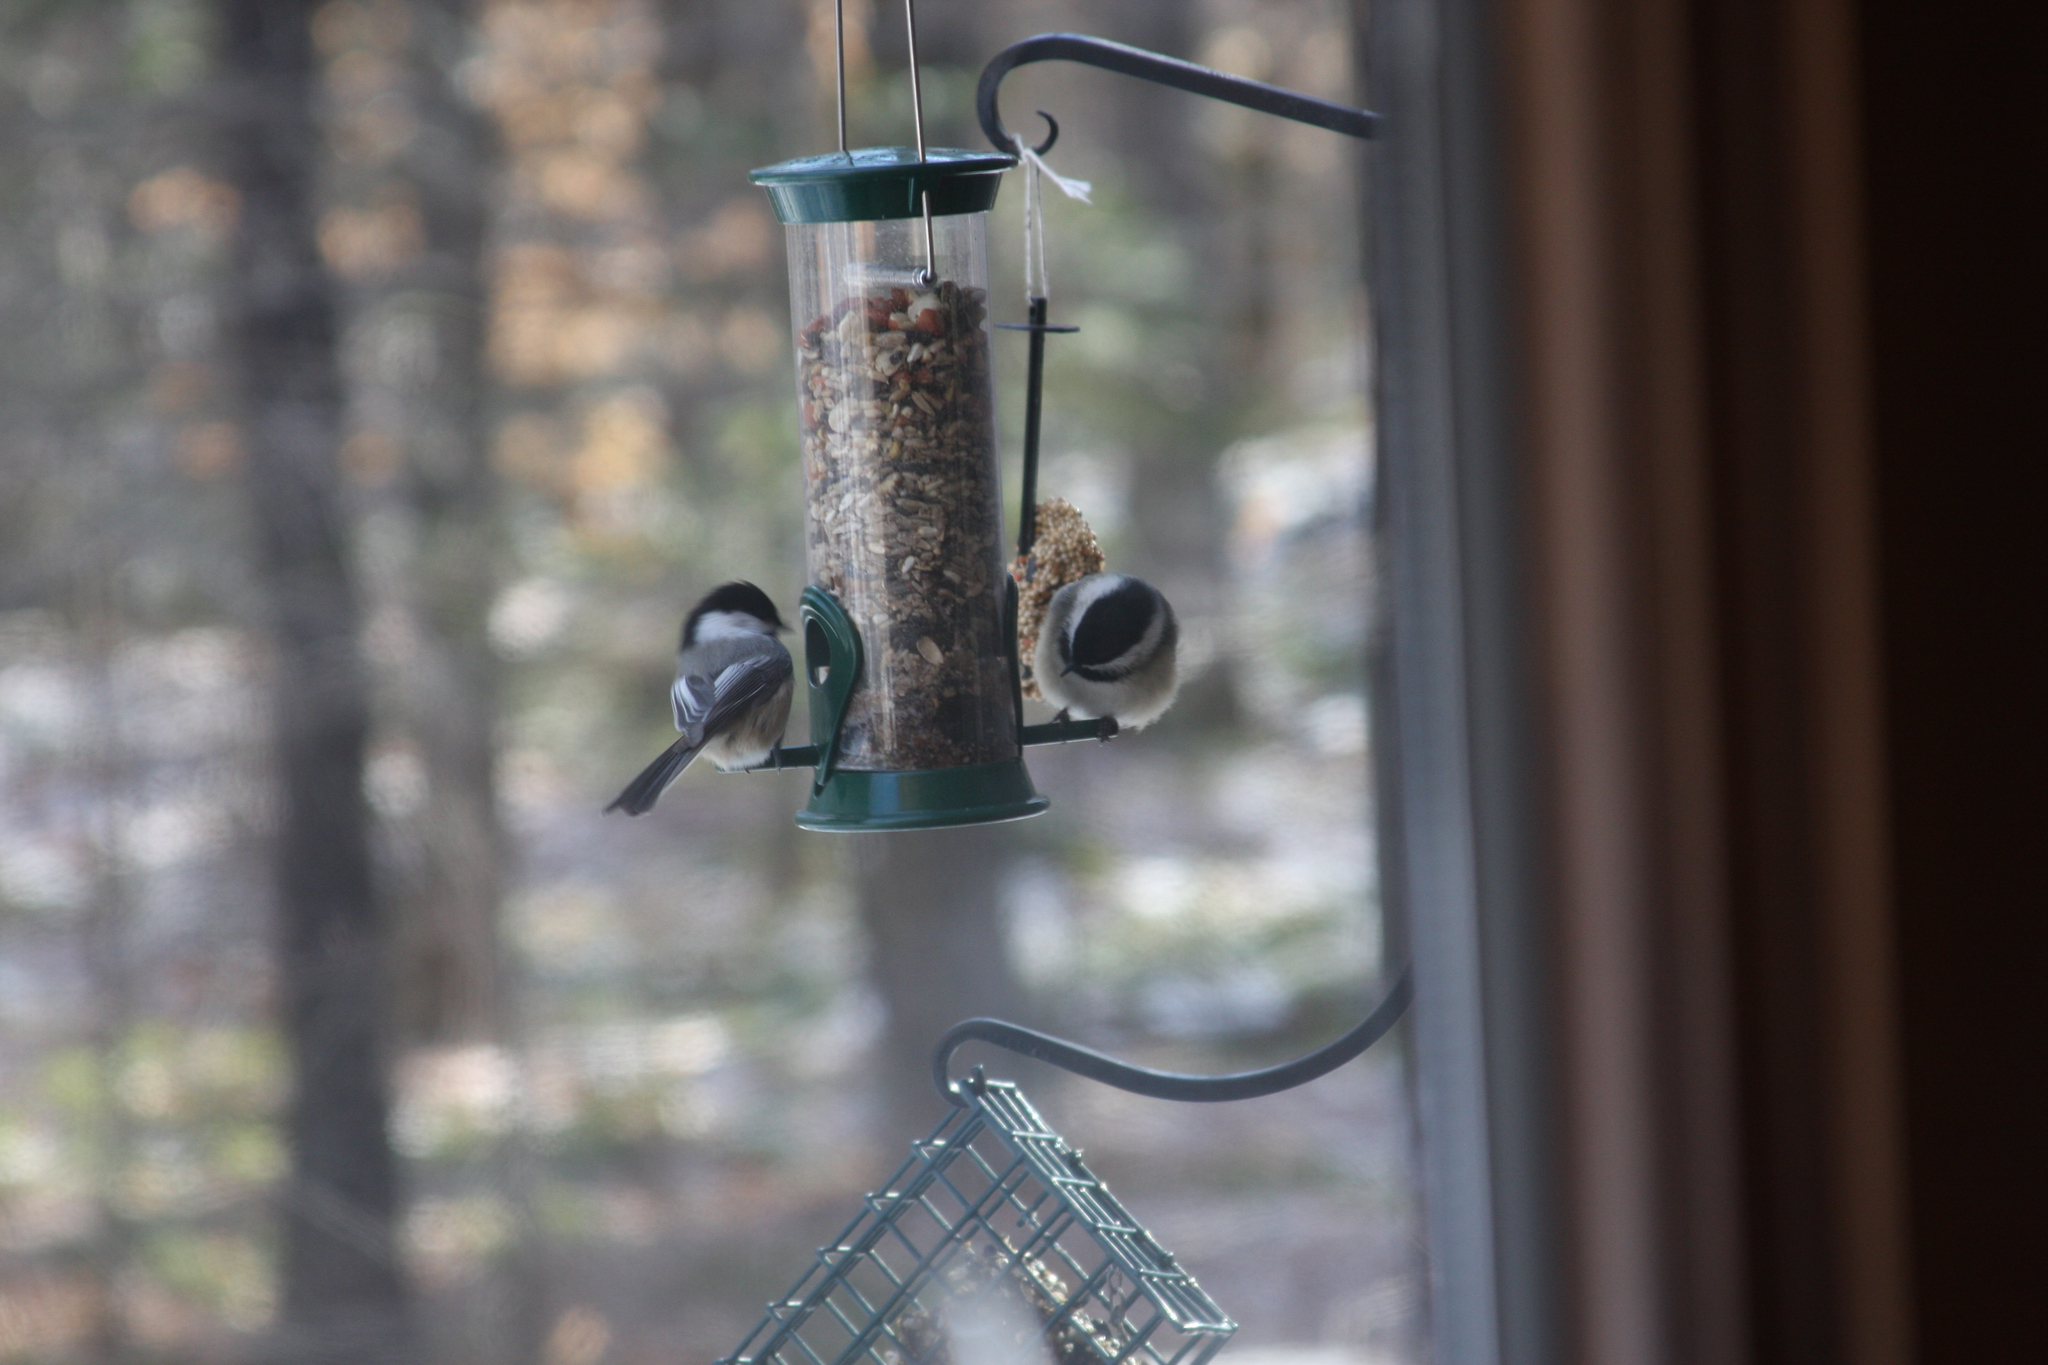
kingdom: Animalia
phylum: Chordata
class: Aves
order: Passeriformes
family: Paridae
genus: Poecile
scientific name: Poecile atricapillus
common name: Black-capped chickadee
